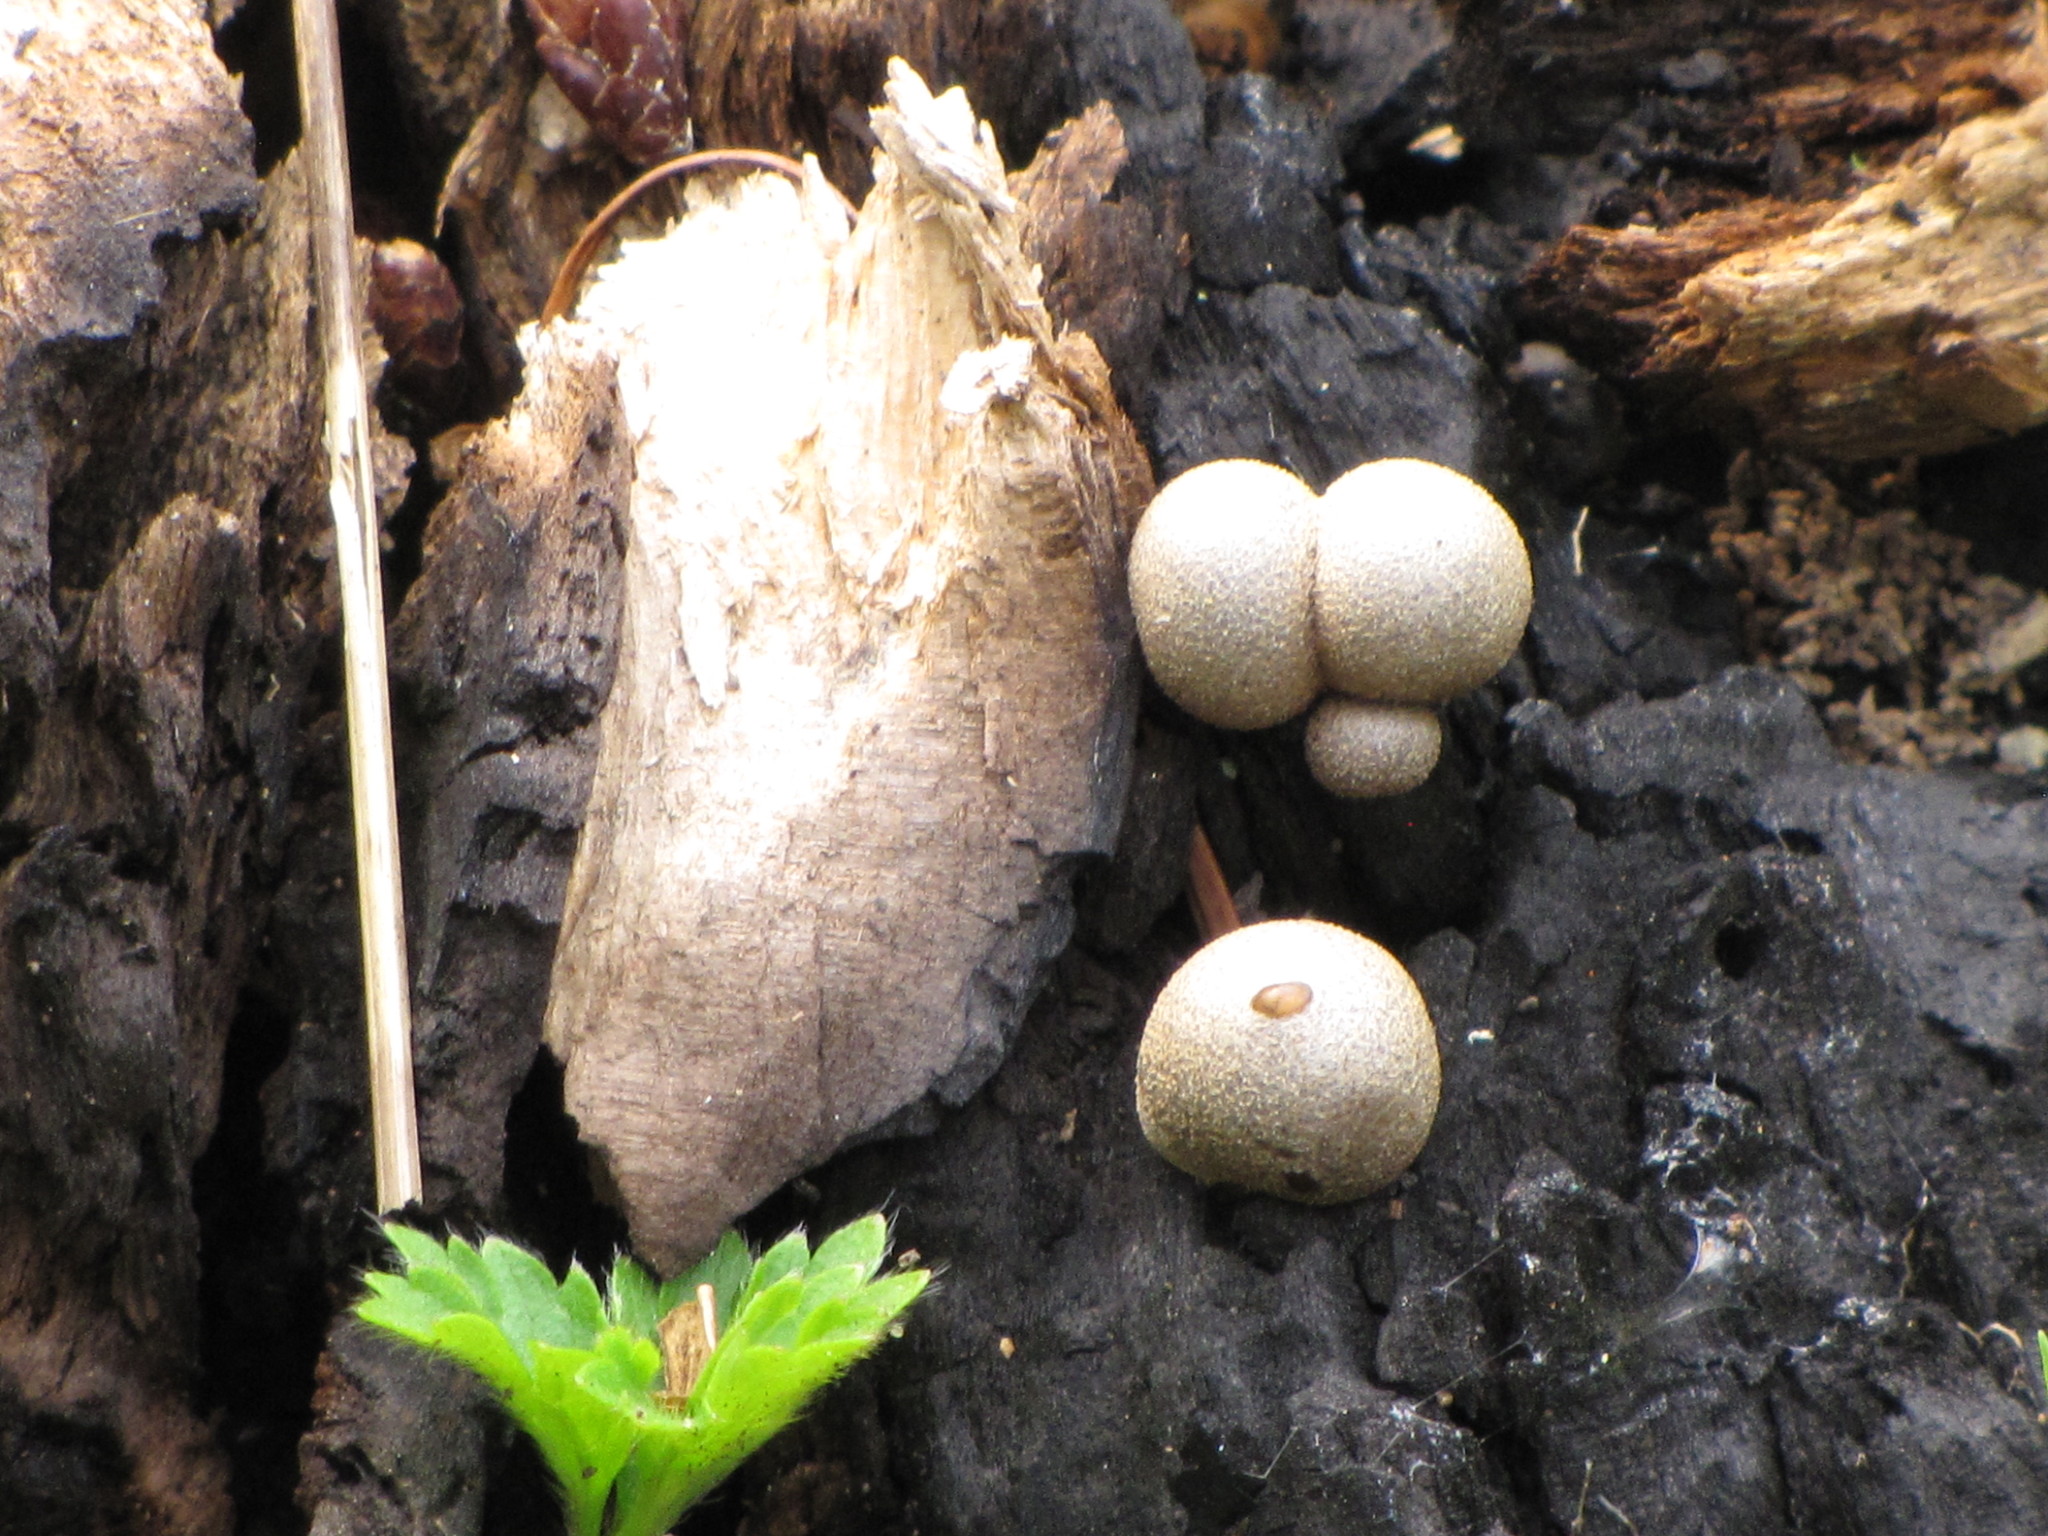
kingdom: Fungi
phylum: Basidiomycota
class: Agaricomycetes
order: Agaricales
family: Lycoperdaceae
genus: Apioperdon
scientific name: Apioperdon pyriforme
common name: Pear-shaped puffball
